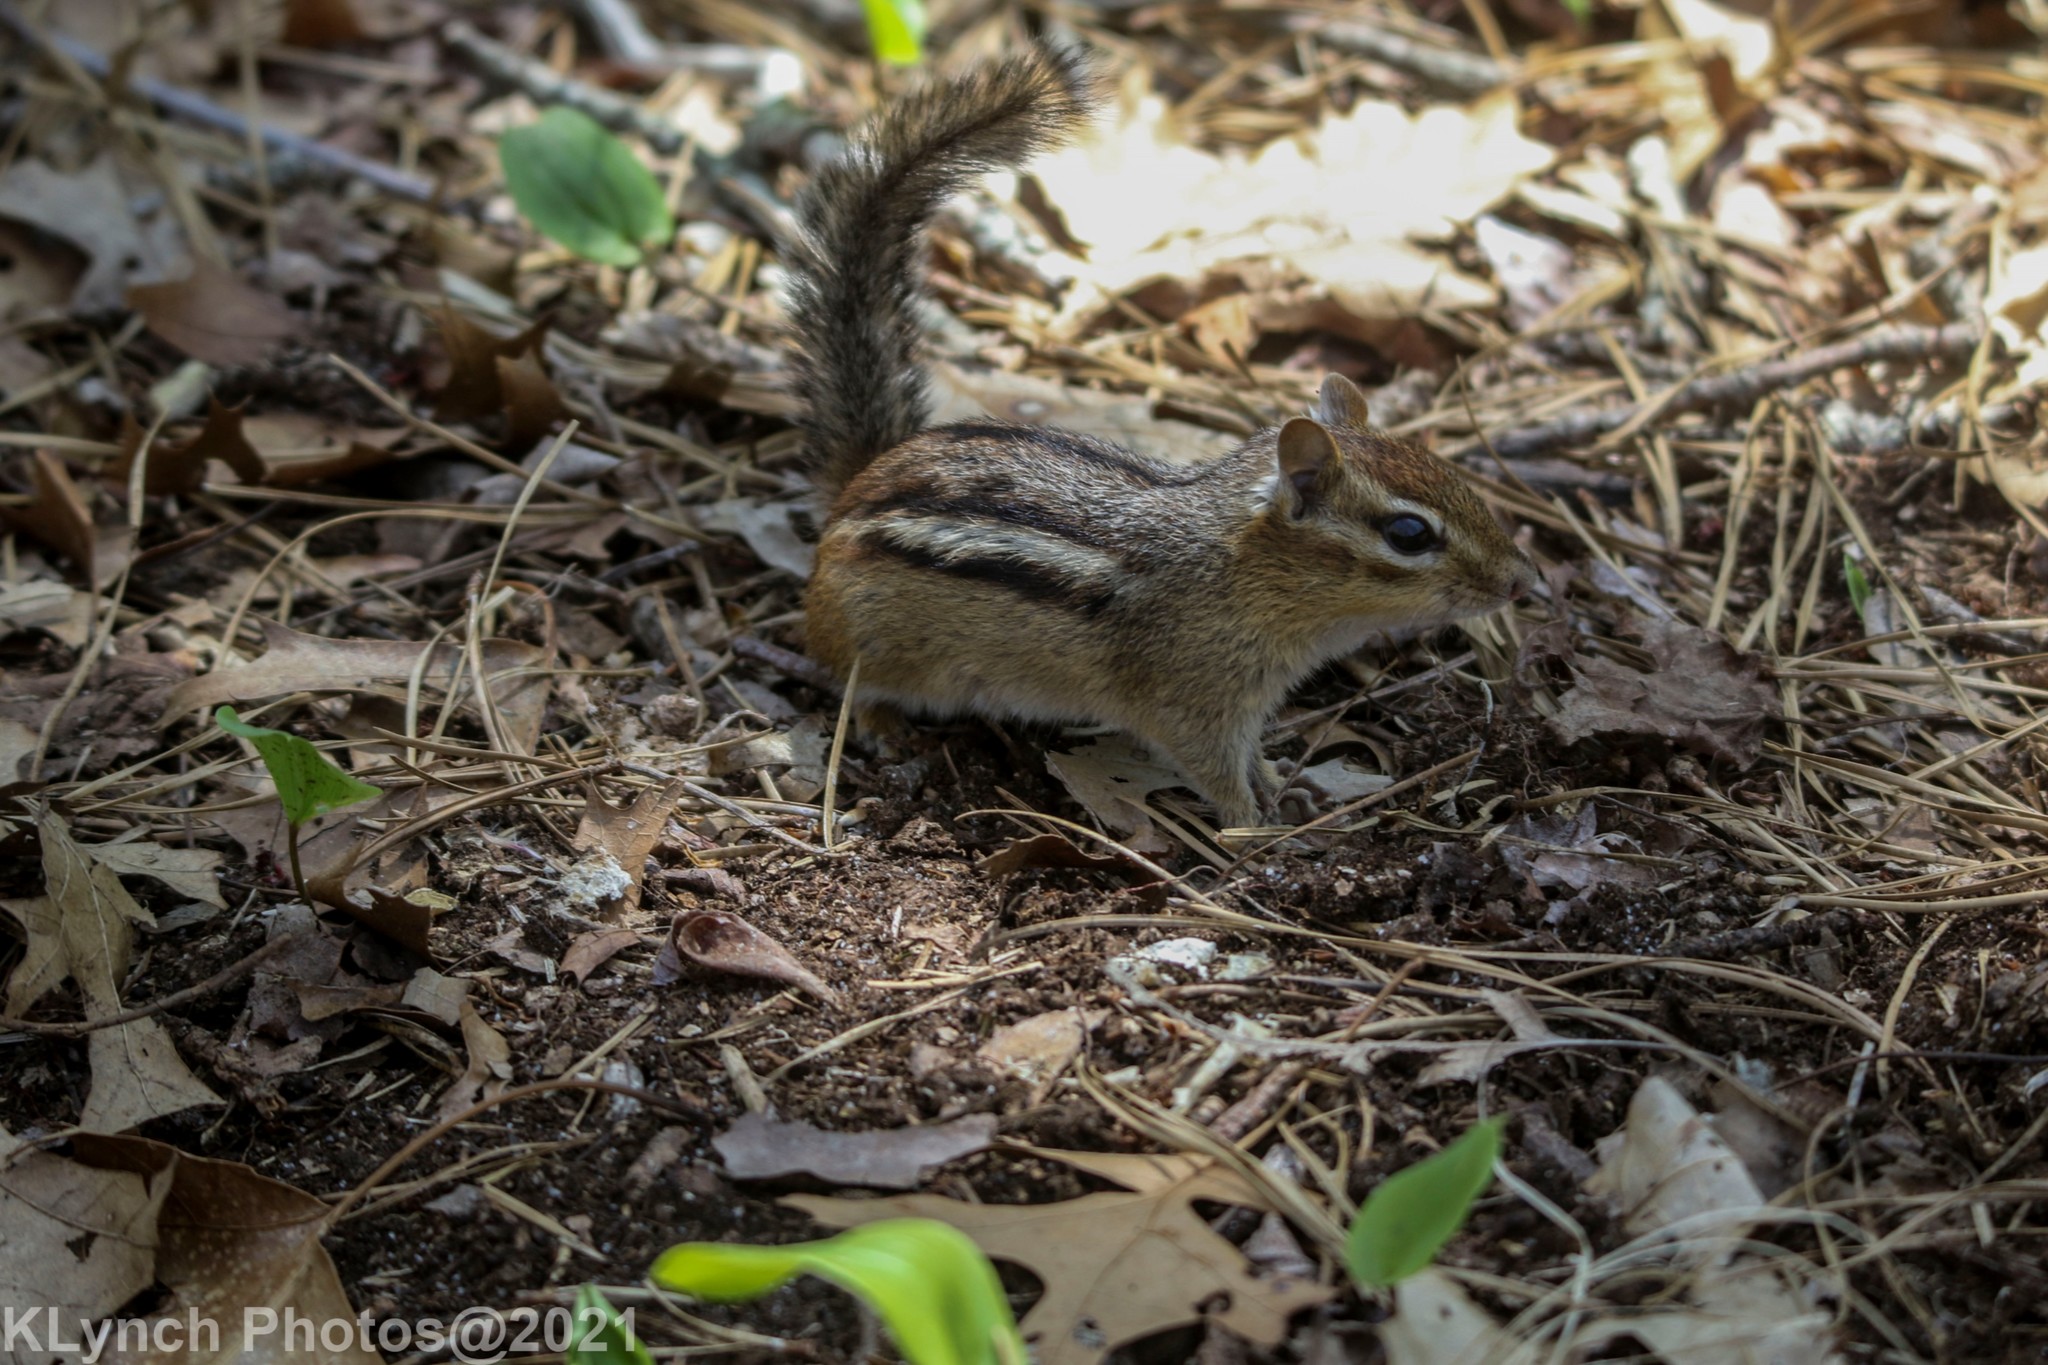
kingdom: Animalia
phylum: Chordata
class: Mammalia
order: Rodentia
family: Sciuridae
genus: Tamias
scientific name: Tamias striatus
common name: Eastern chipmunk
